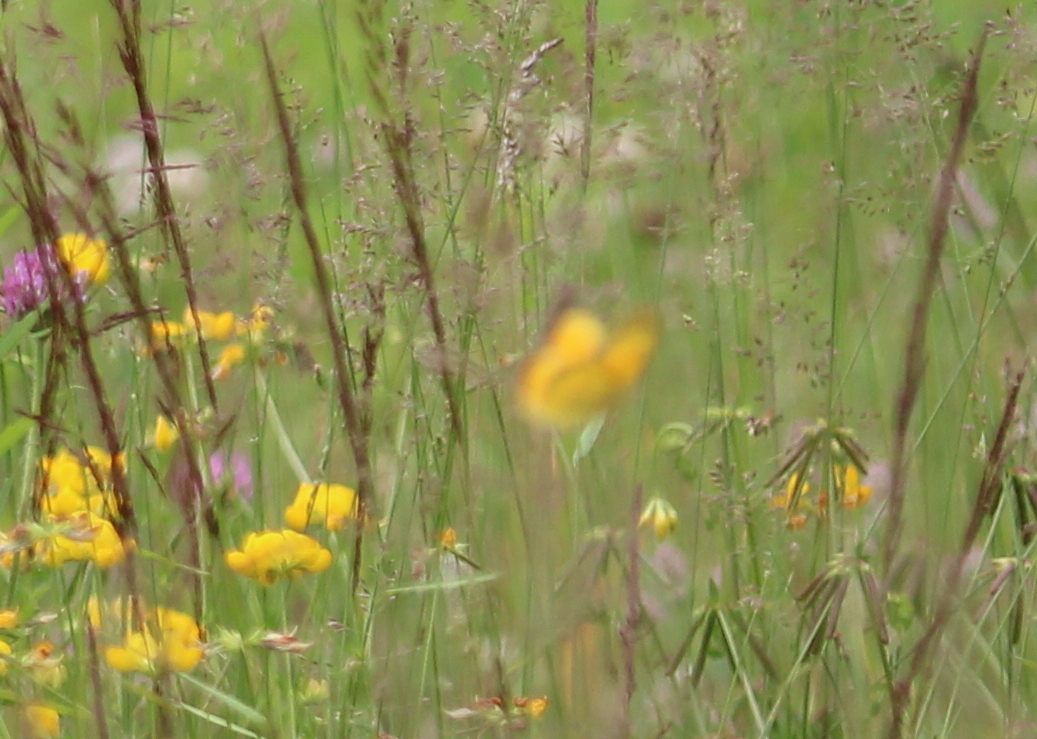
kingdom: Animalia
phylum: Arthropoda
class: Insecta
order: Lepidoptera
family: Pieridae
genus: Colias
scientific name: Colias eurytheme
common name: Alfalfa butterfly
